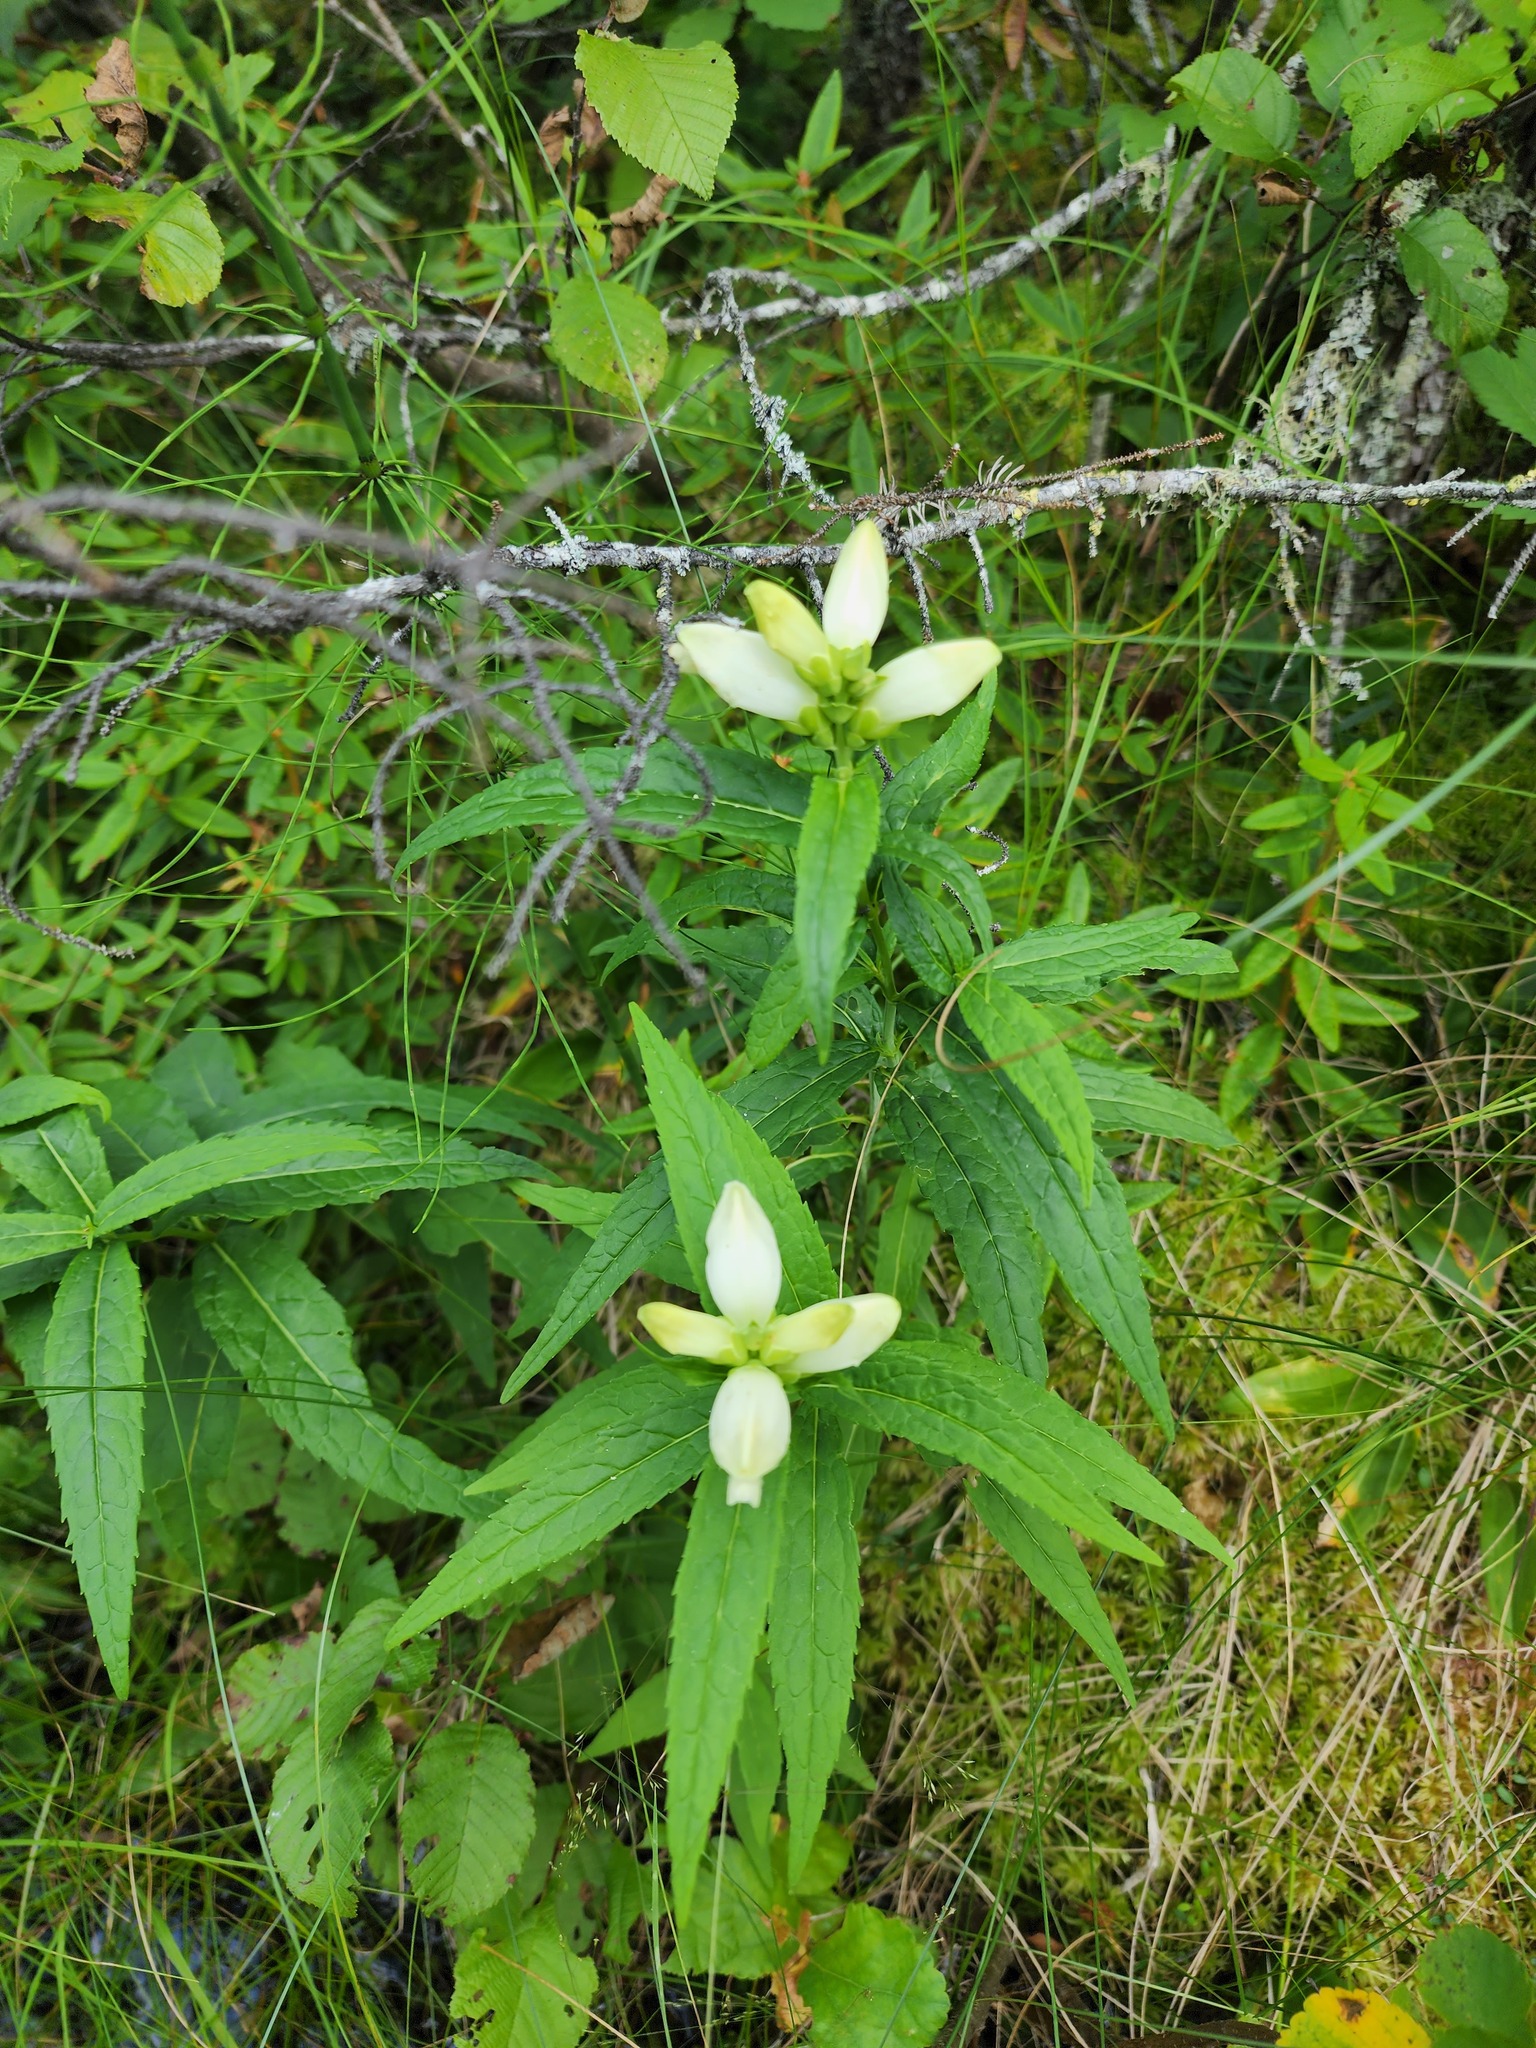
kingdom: Plantae
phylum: Tracheophyta
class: Magnoliopsida
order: Lamiales
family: Plantaginaceae
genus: Chelone
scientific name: Chelone glabra
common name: Snakehead
